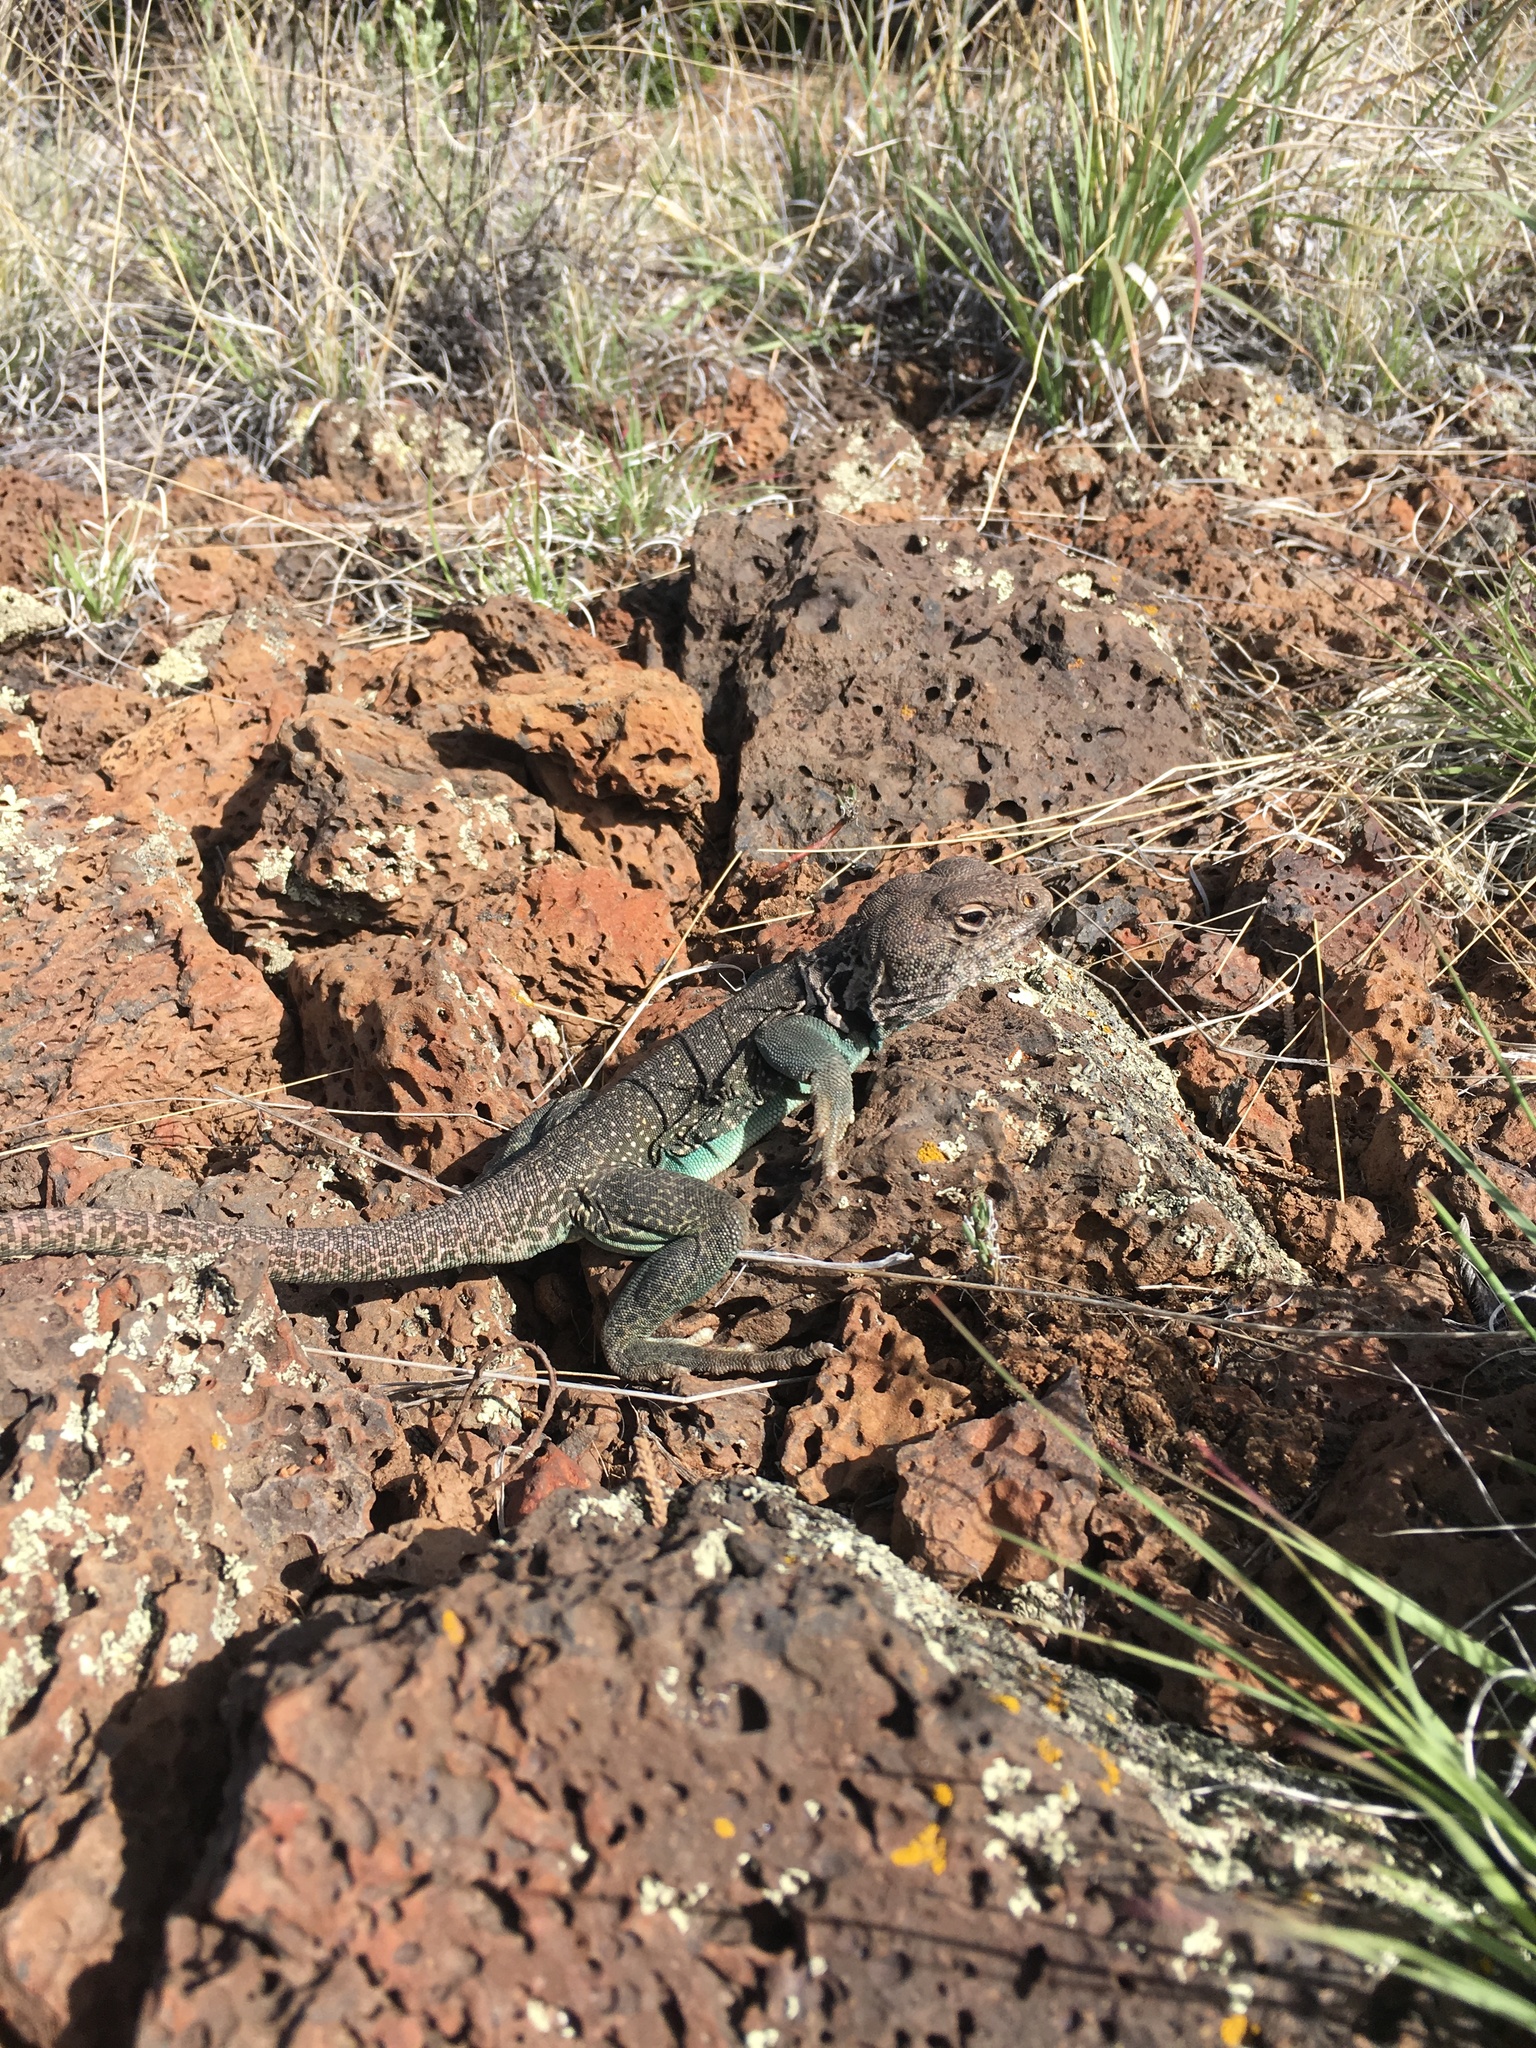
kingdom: Animalia
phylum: Chordata
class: Squamata
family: Crotaphytidae
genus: Crotaphytus
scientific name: Crotaphytus collaris
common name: Collared lizard
